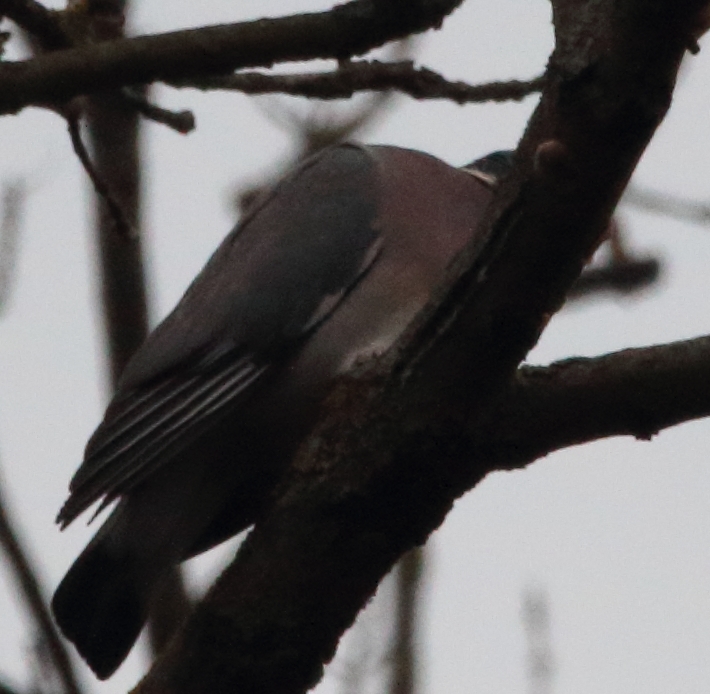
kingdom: Animalia
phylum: Chordata
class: Aves
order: Columbiformes
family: Columbidae
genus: Columba
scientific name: Columba palumbus
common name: Common wood pigeon
